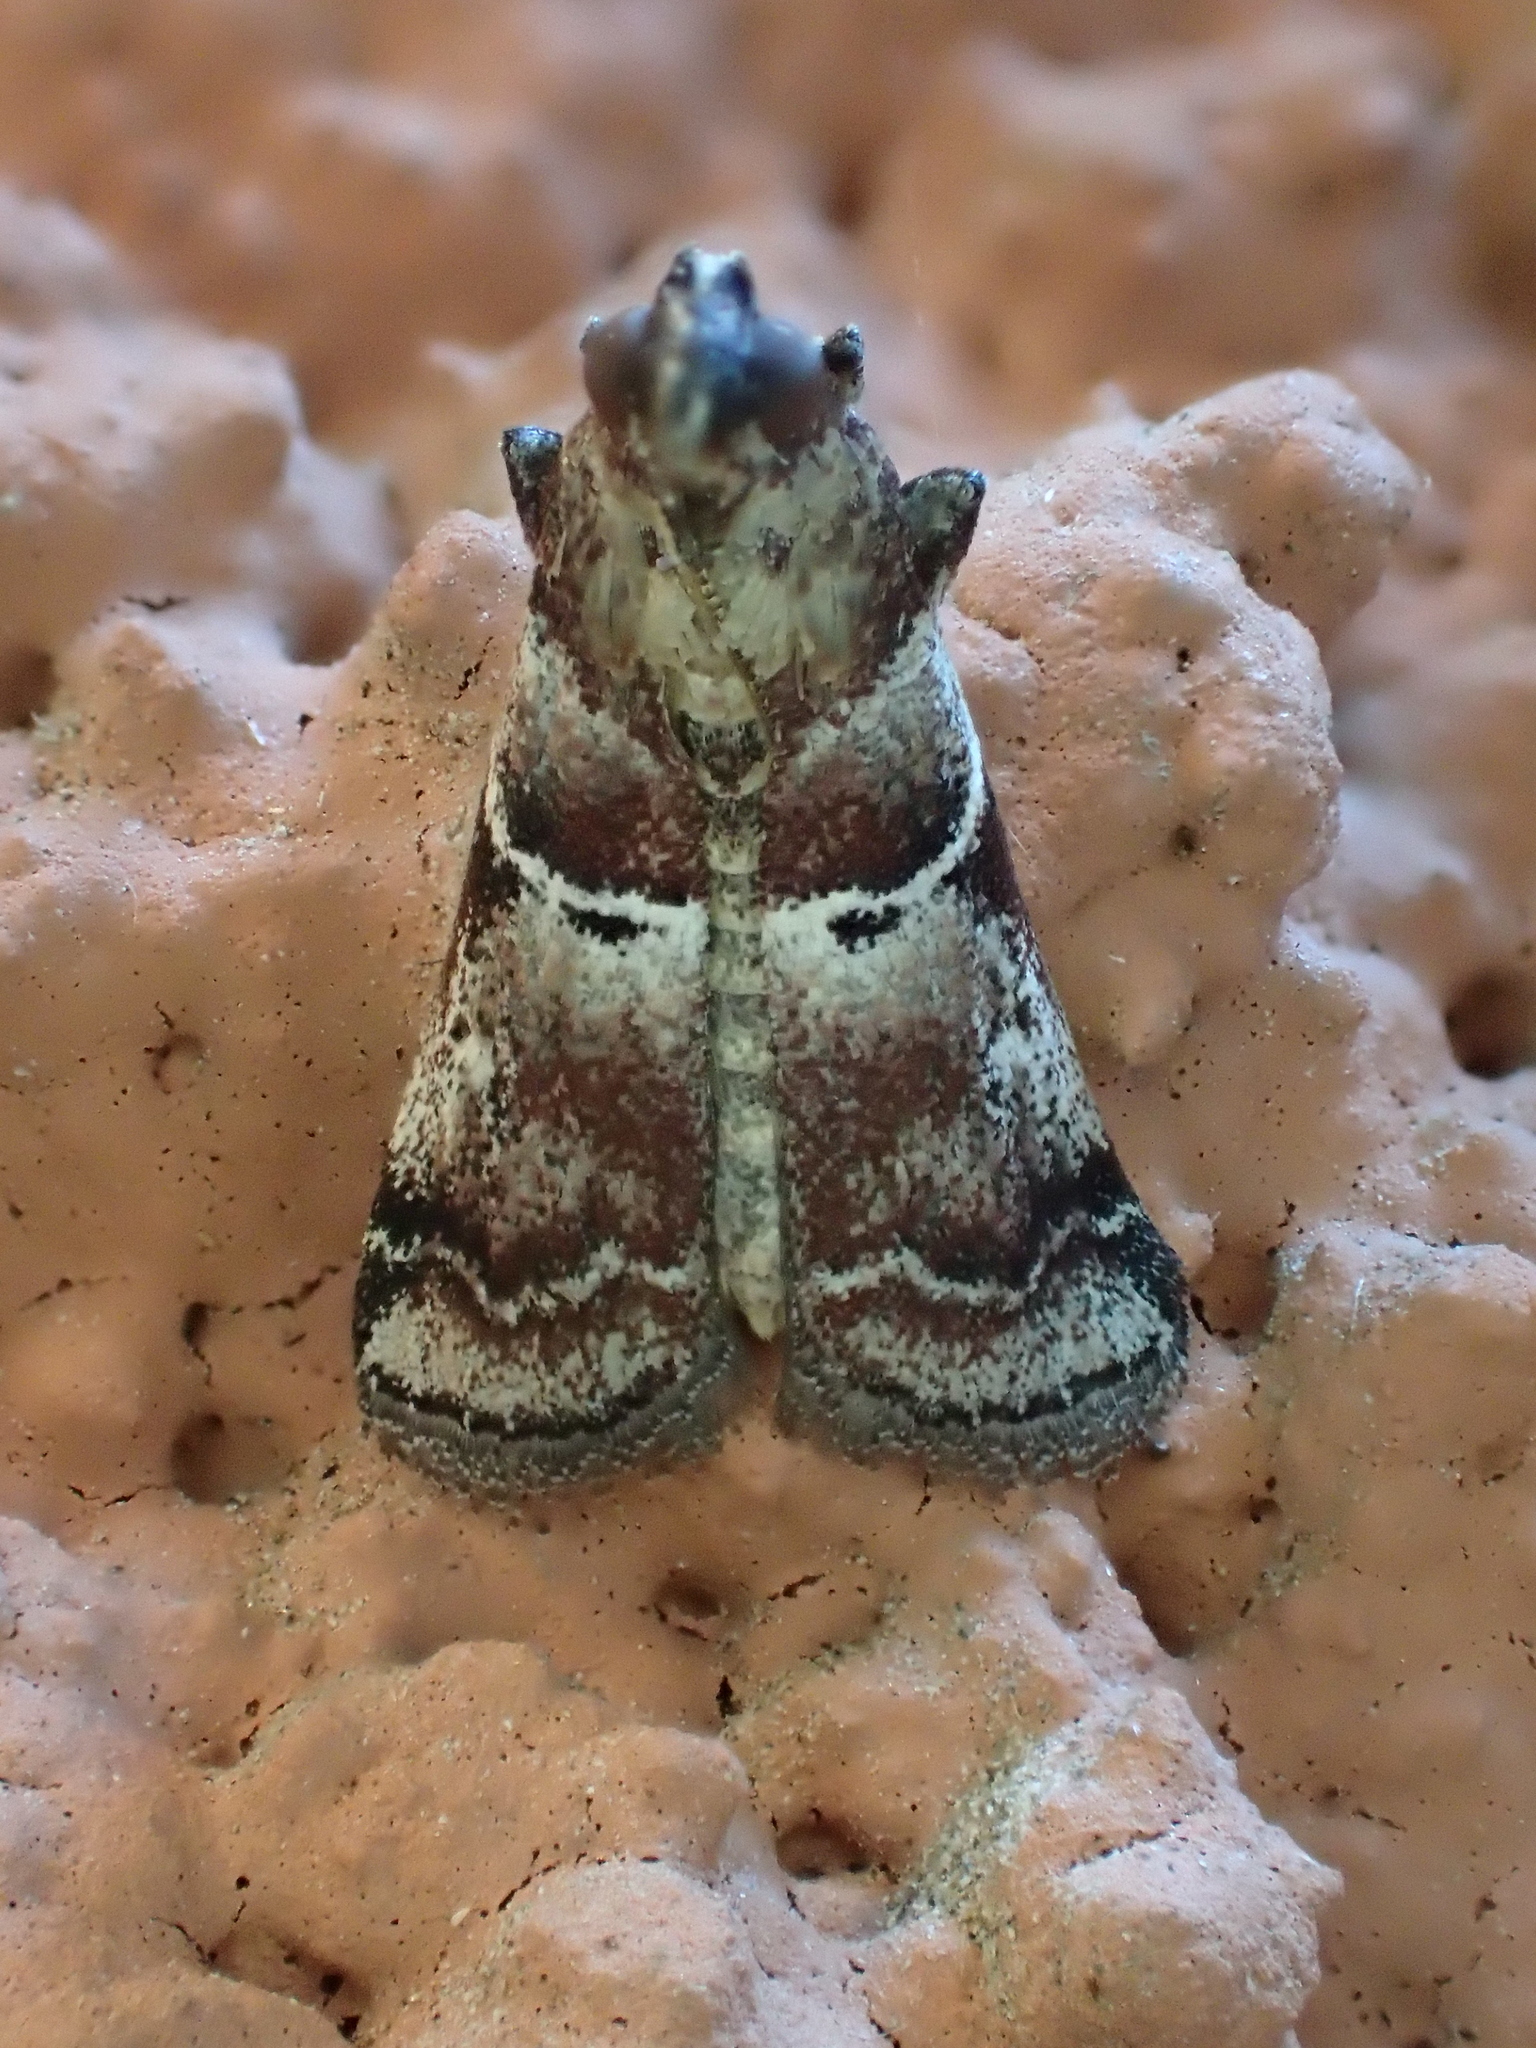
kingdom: Animalia
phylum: Arthropoda
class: Insecta
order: Lepidoptera
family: Pyralidae
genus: Alophia
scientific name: Alophia combustella
